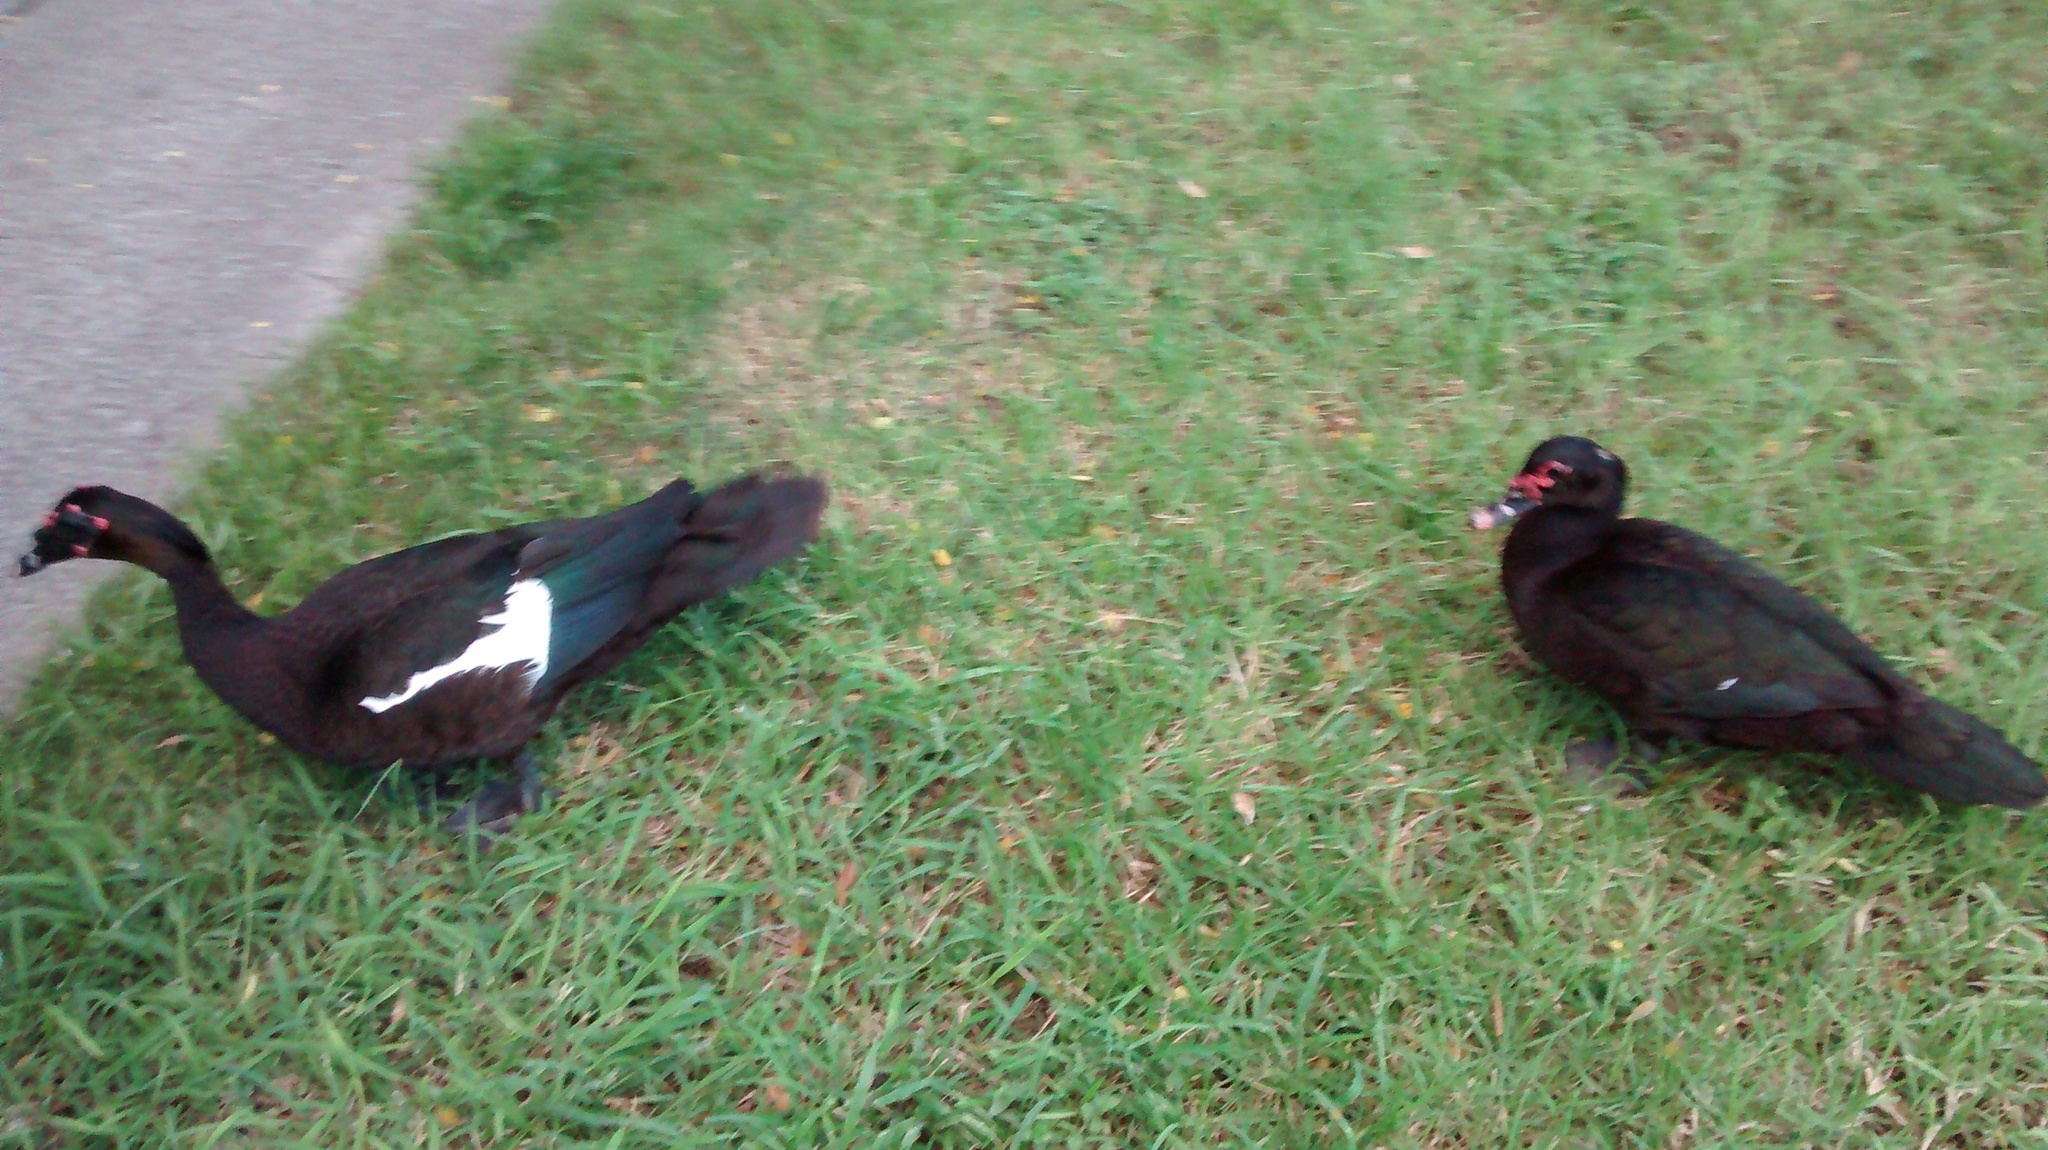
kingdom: Animalia
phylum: Chordata
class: Aves
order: Anseriformes
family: Anatidae
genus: Cairina
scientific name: Cairina moschata
